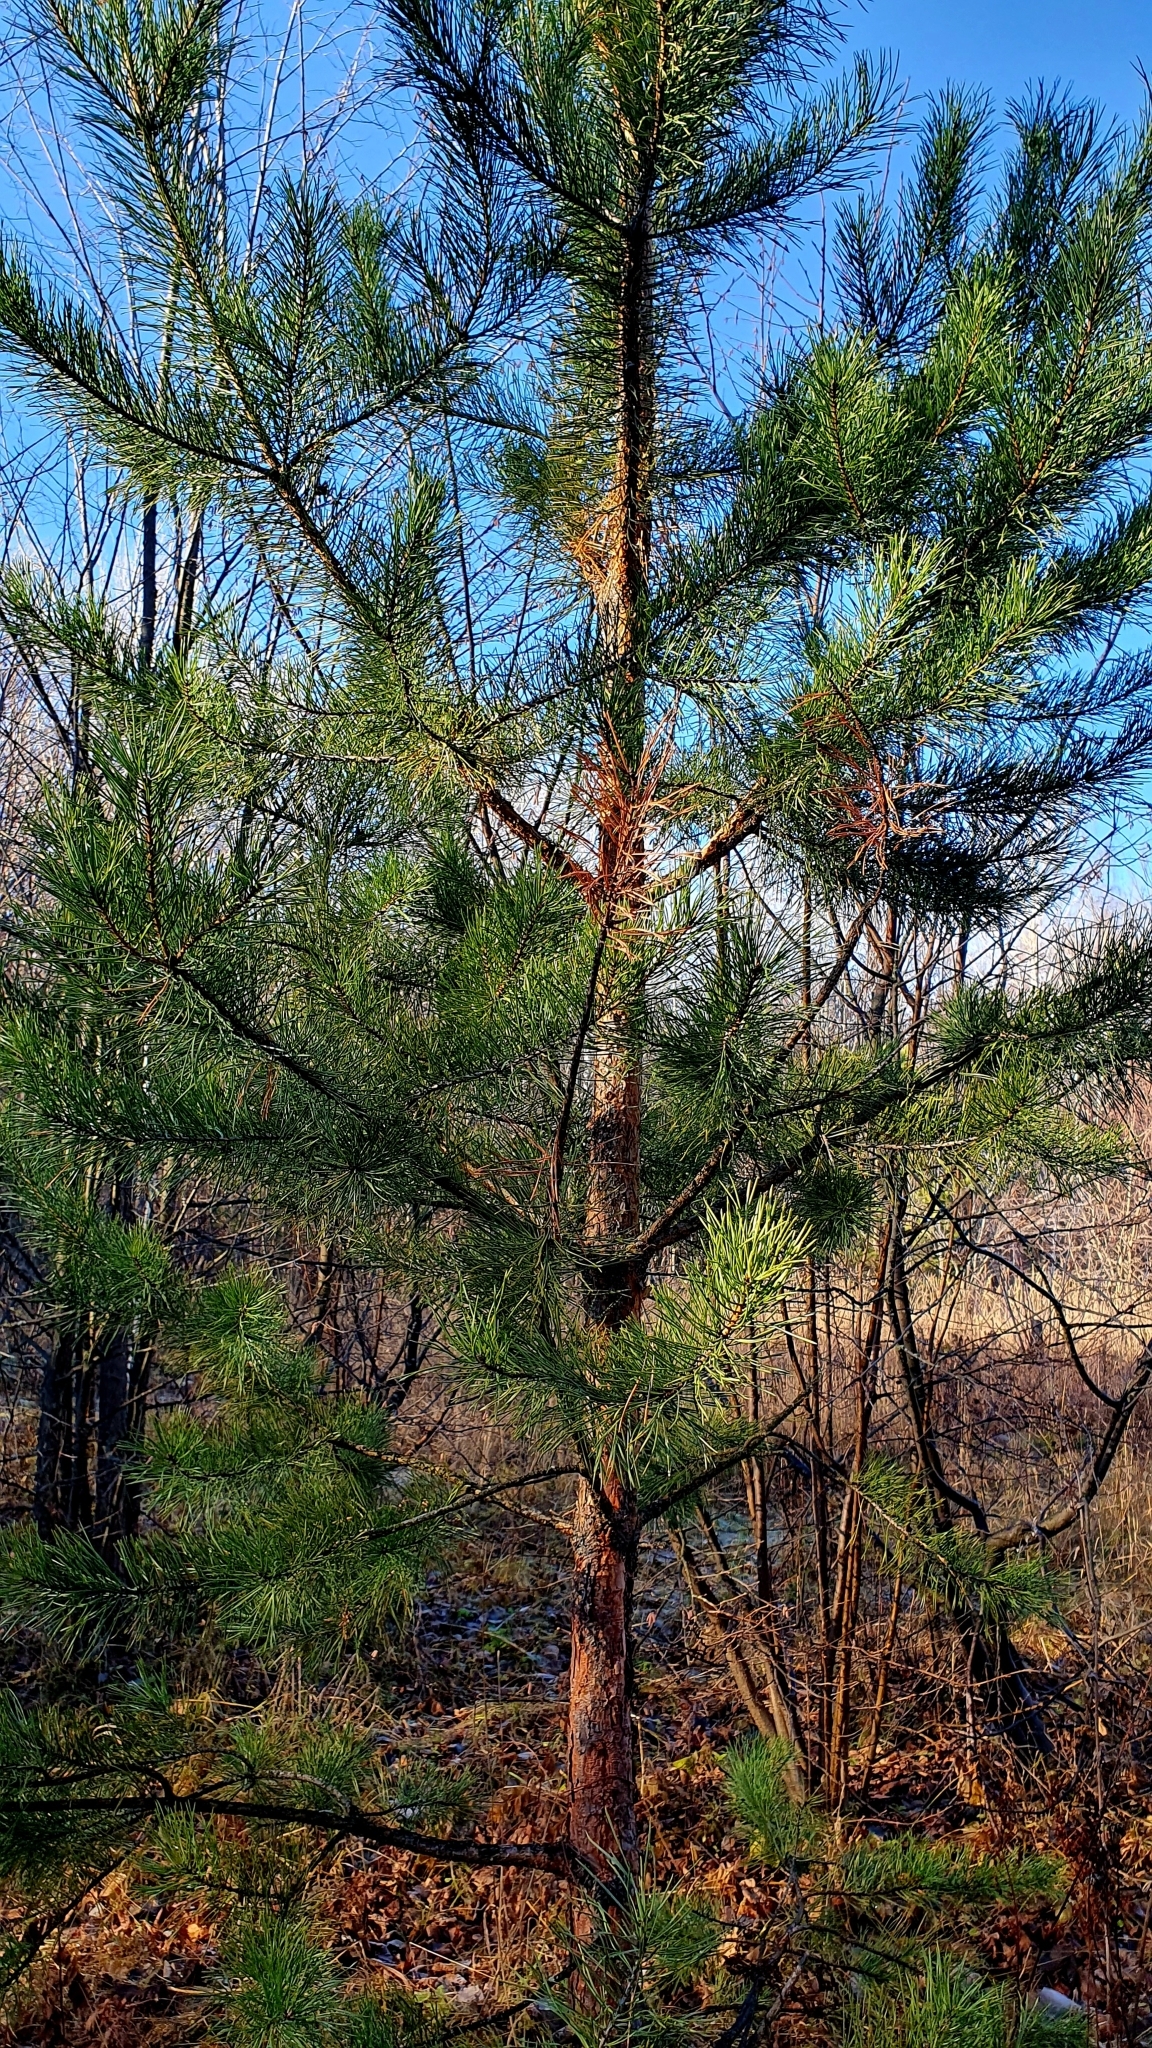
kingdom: Plantae
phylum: Tracheophyta
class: Pinopsida
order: Pinales
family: Pinaceae
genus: Pinus
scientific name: Pinus sylvestris
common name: Scots pine
